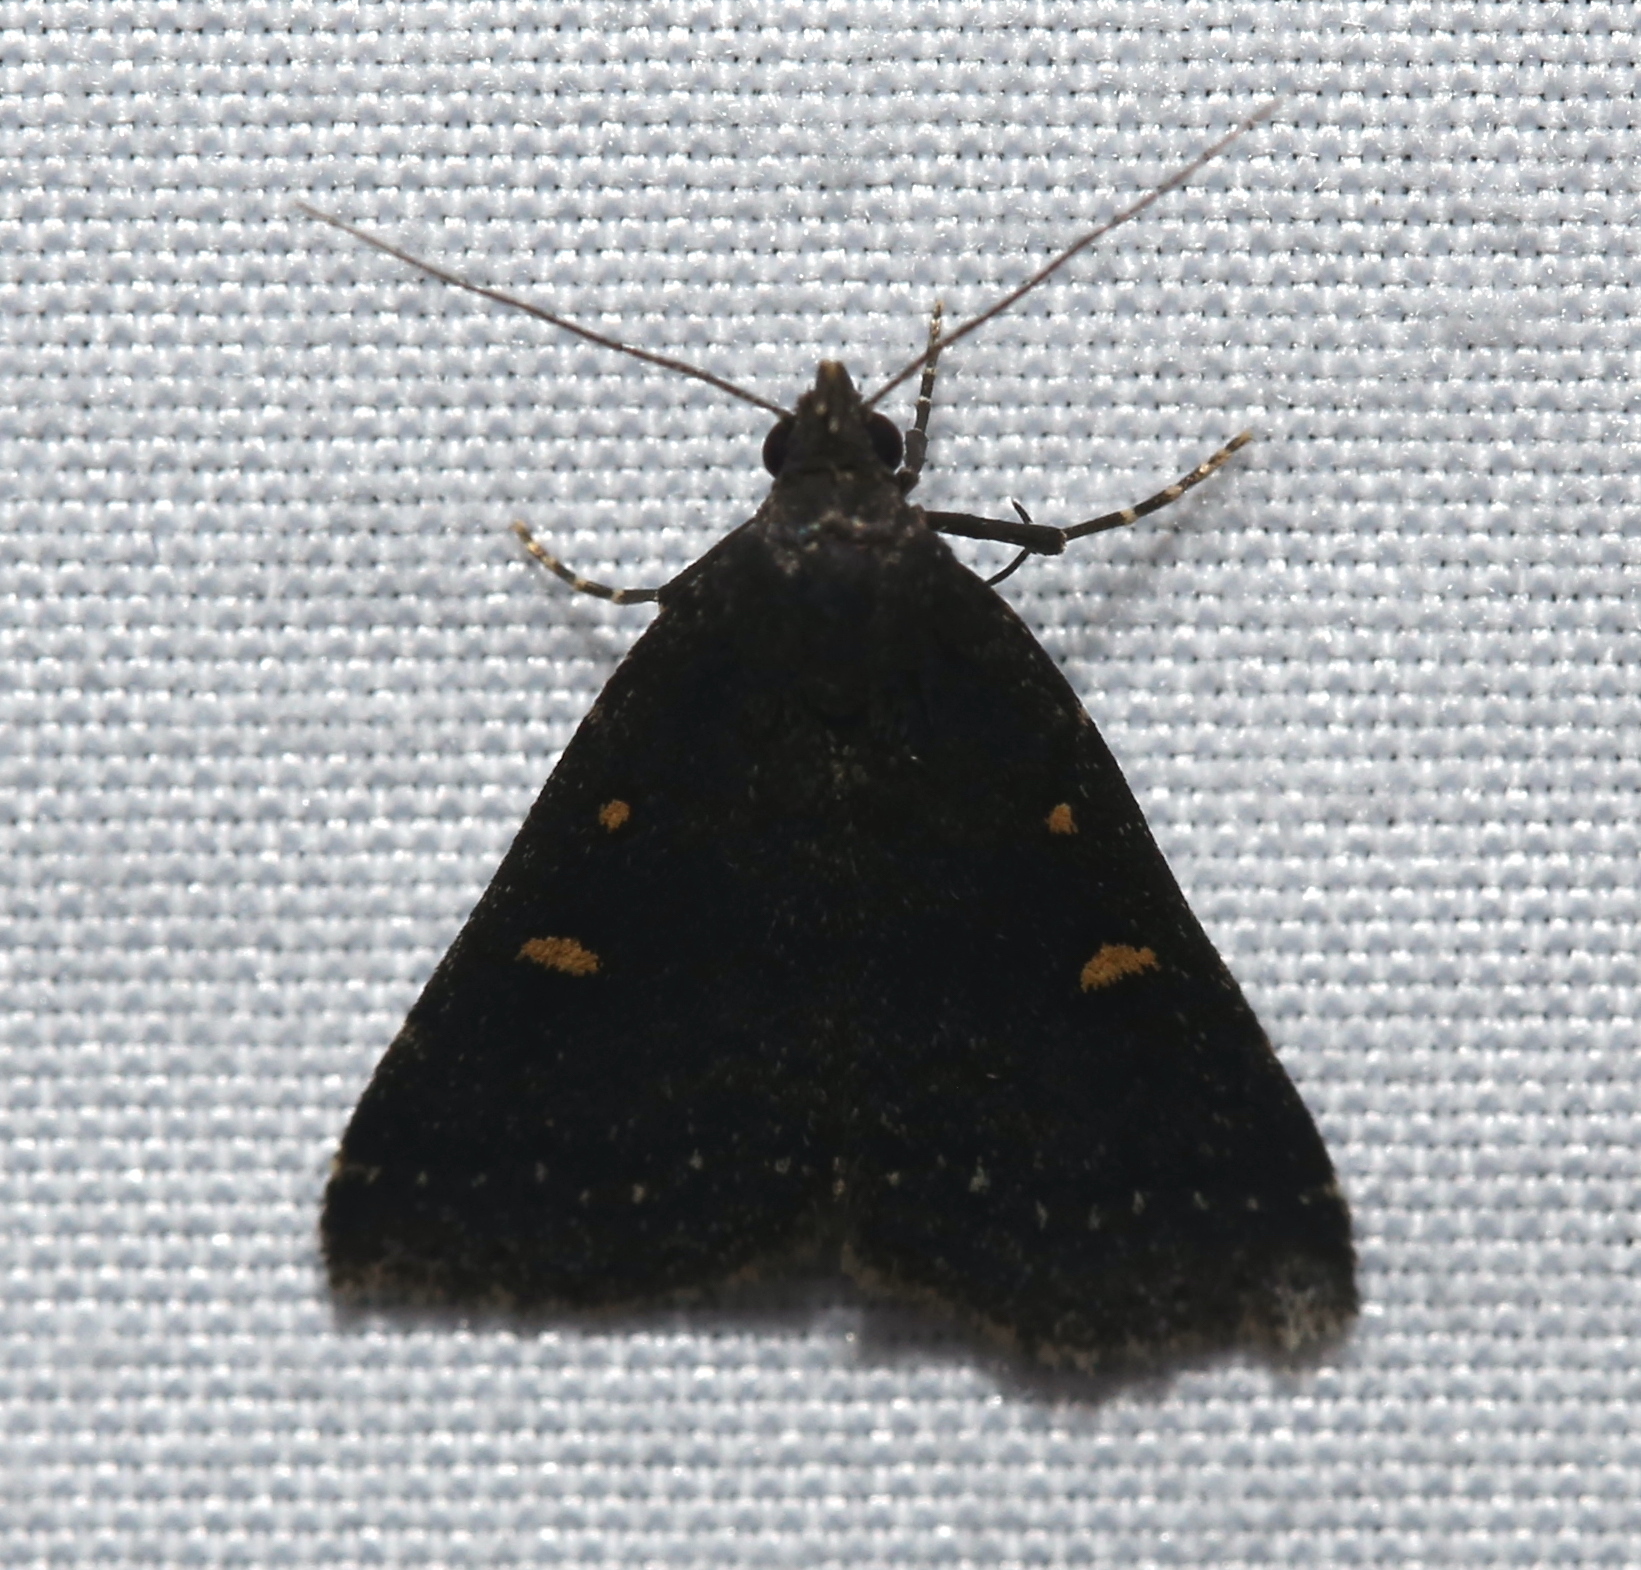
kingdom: Animalia
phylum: Arthropoda
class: Insecta
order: Lepidoptera
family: Erebidae
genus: Tetanolita
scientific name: Tetanolita mynesalis
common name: Smoky tetanolita moth
